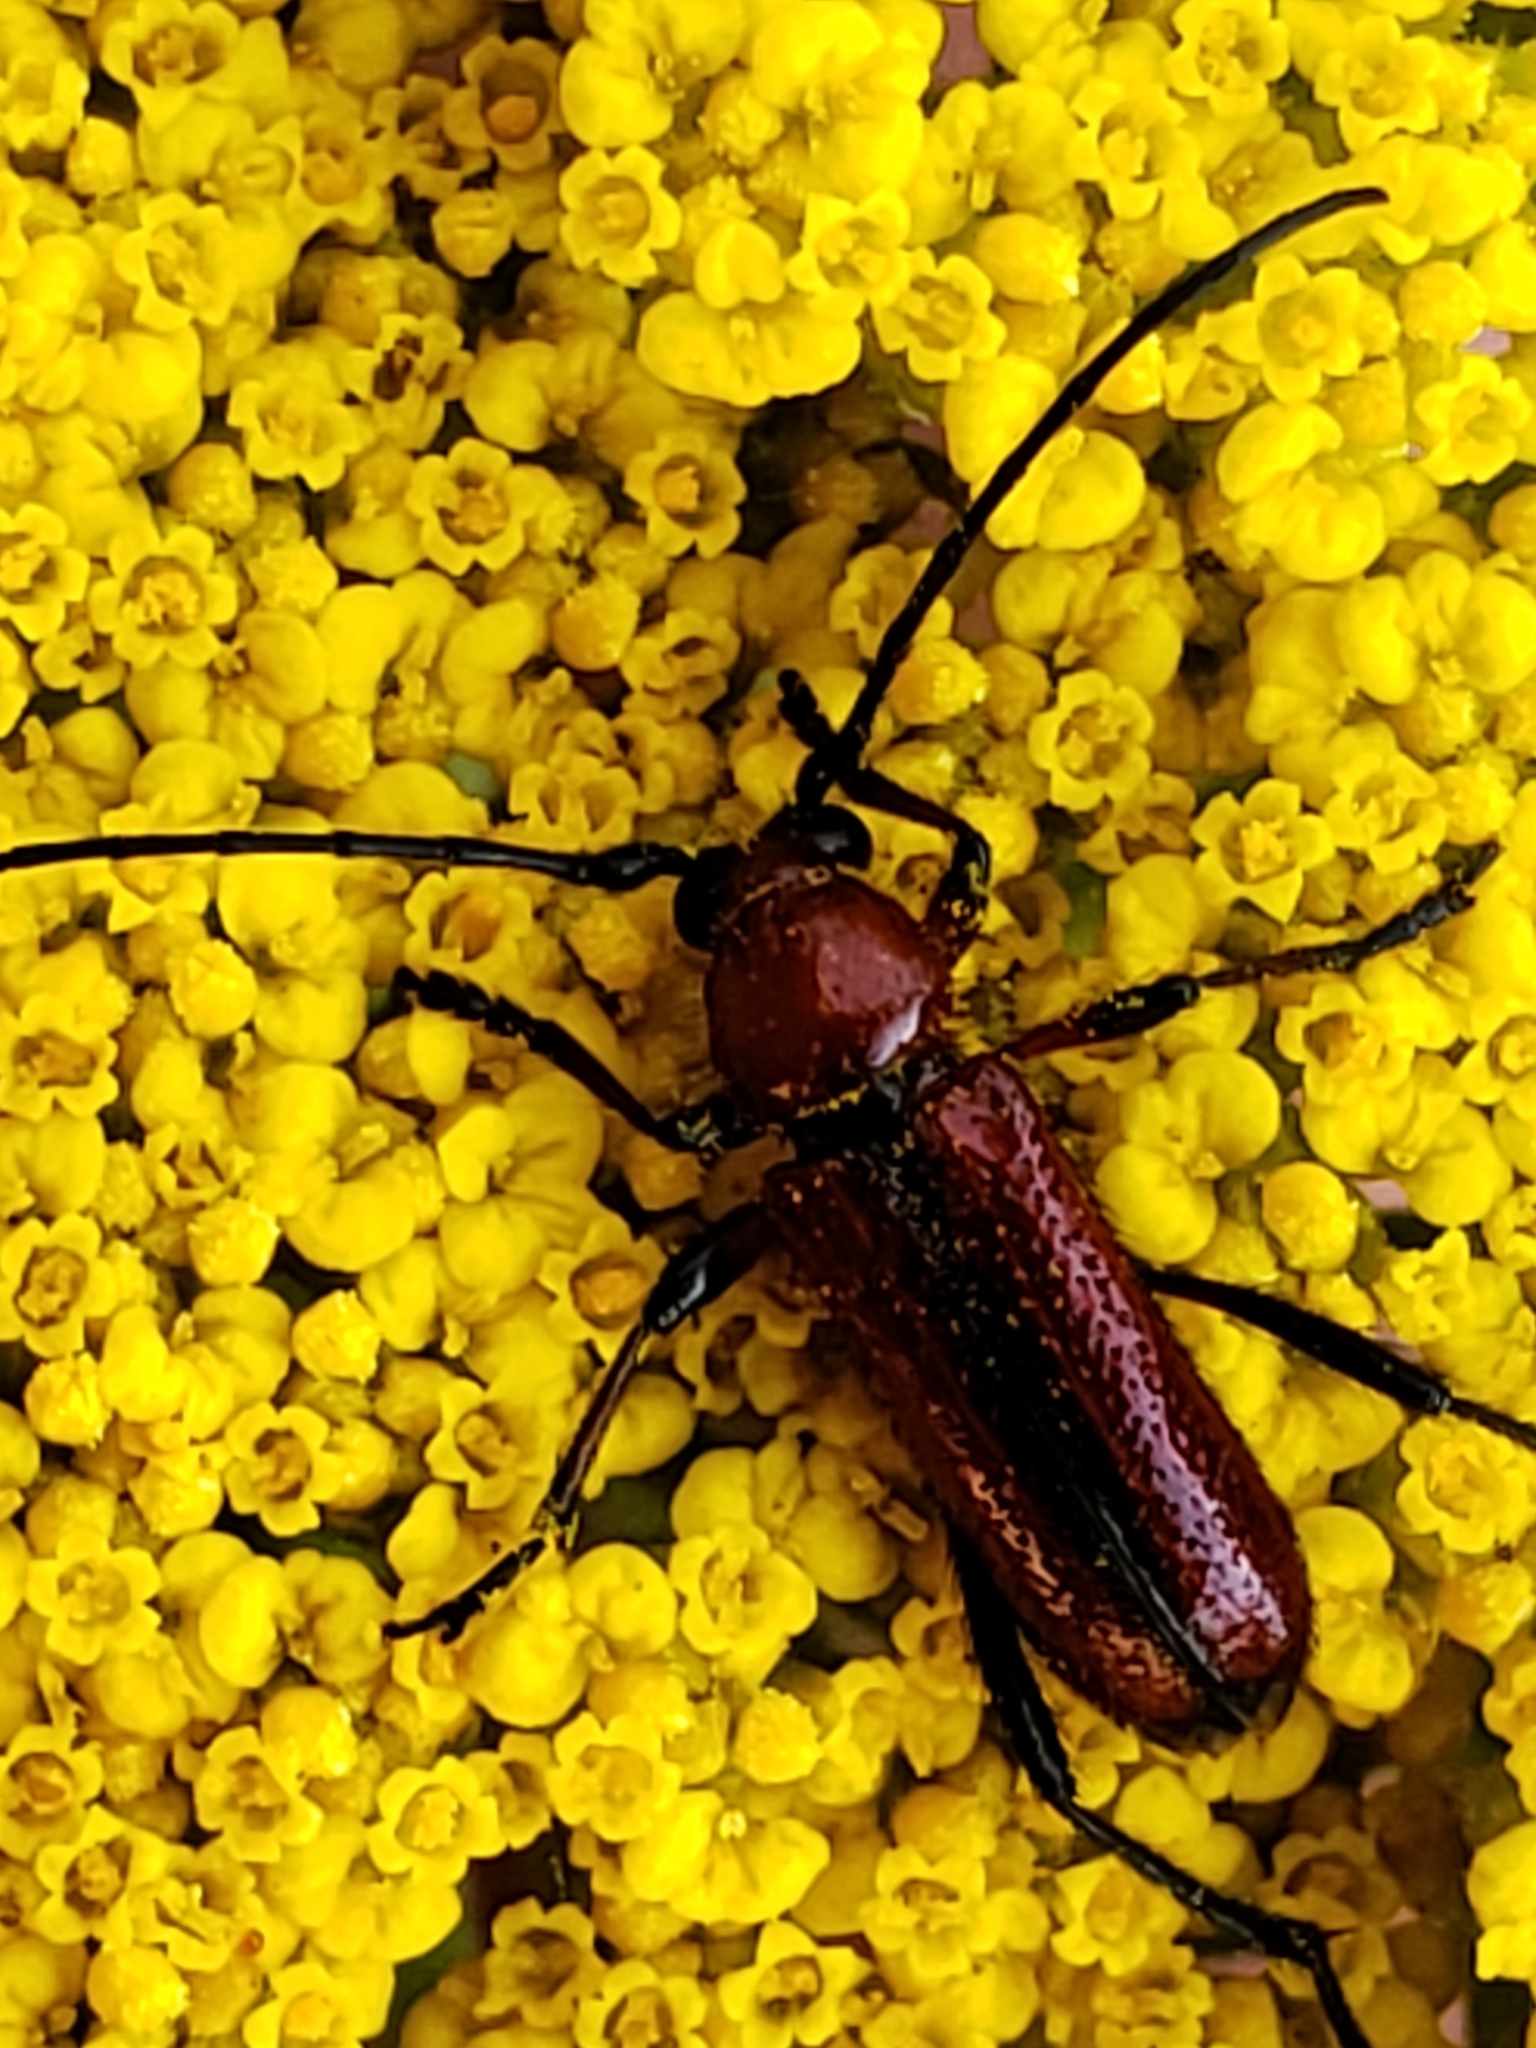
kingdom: Animalia
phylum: Arthropoda
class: Insecta
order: Coleoptera
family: Cerambycidae
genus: Batyle
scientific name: Batyle suturalis
